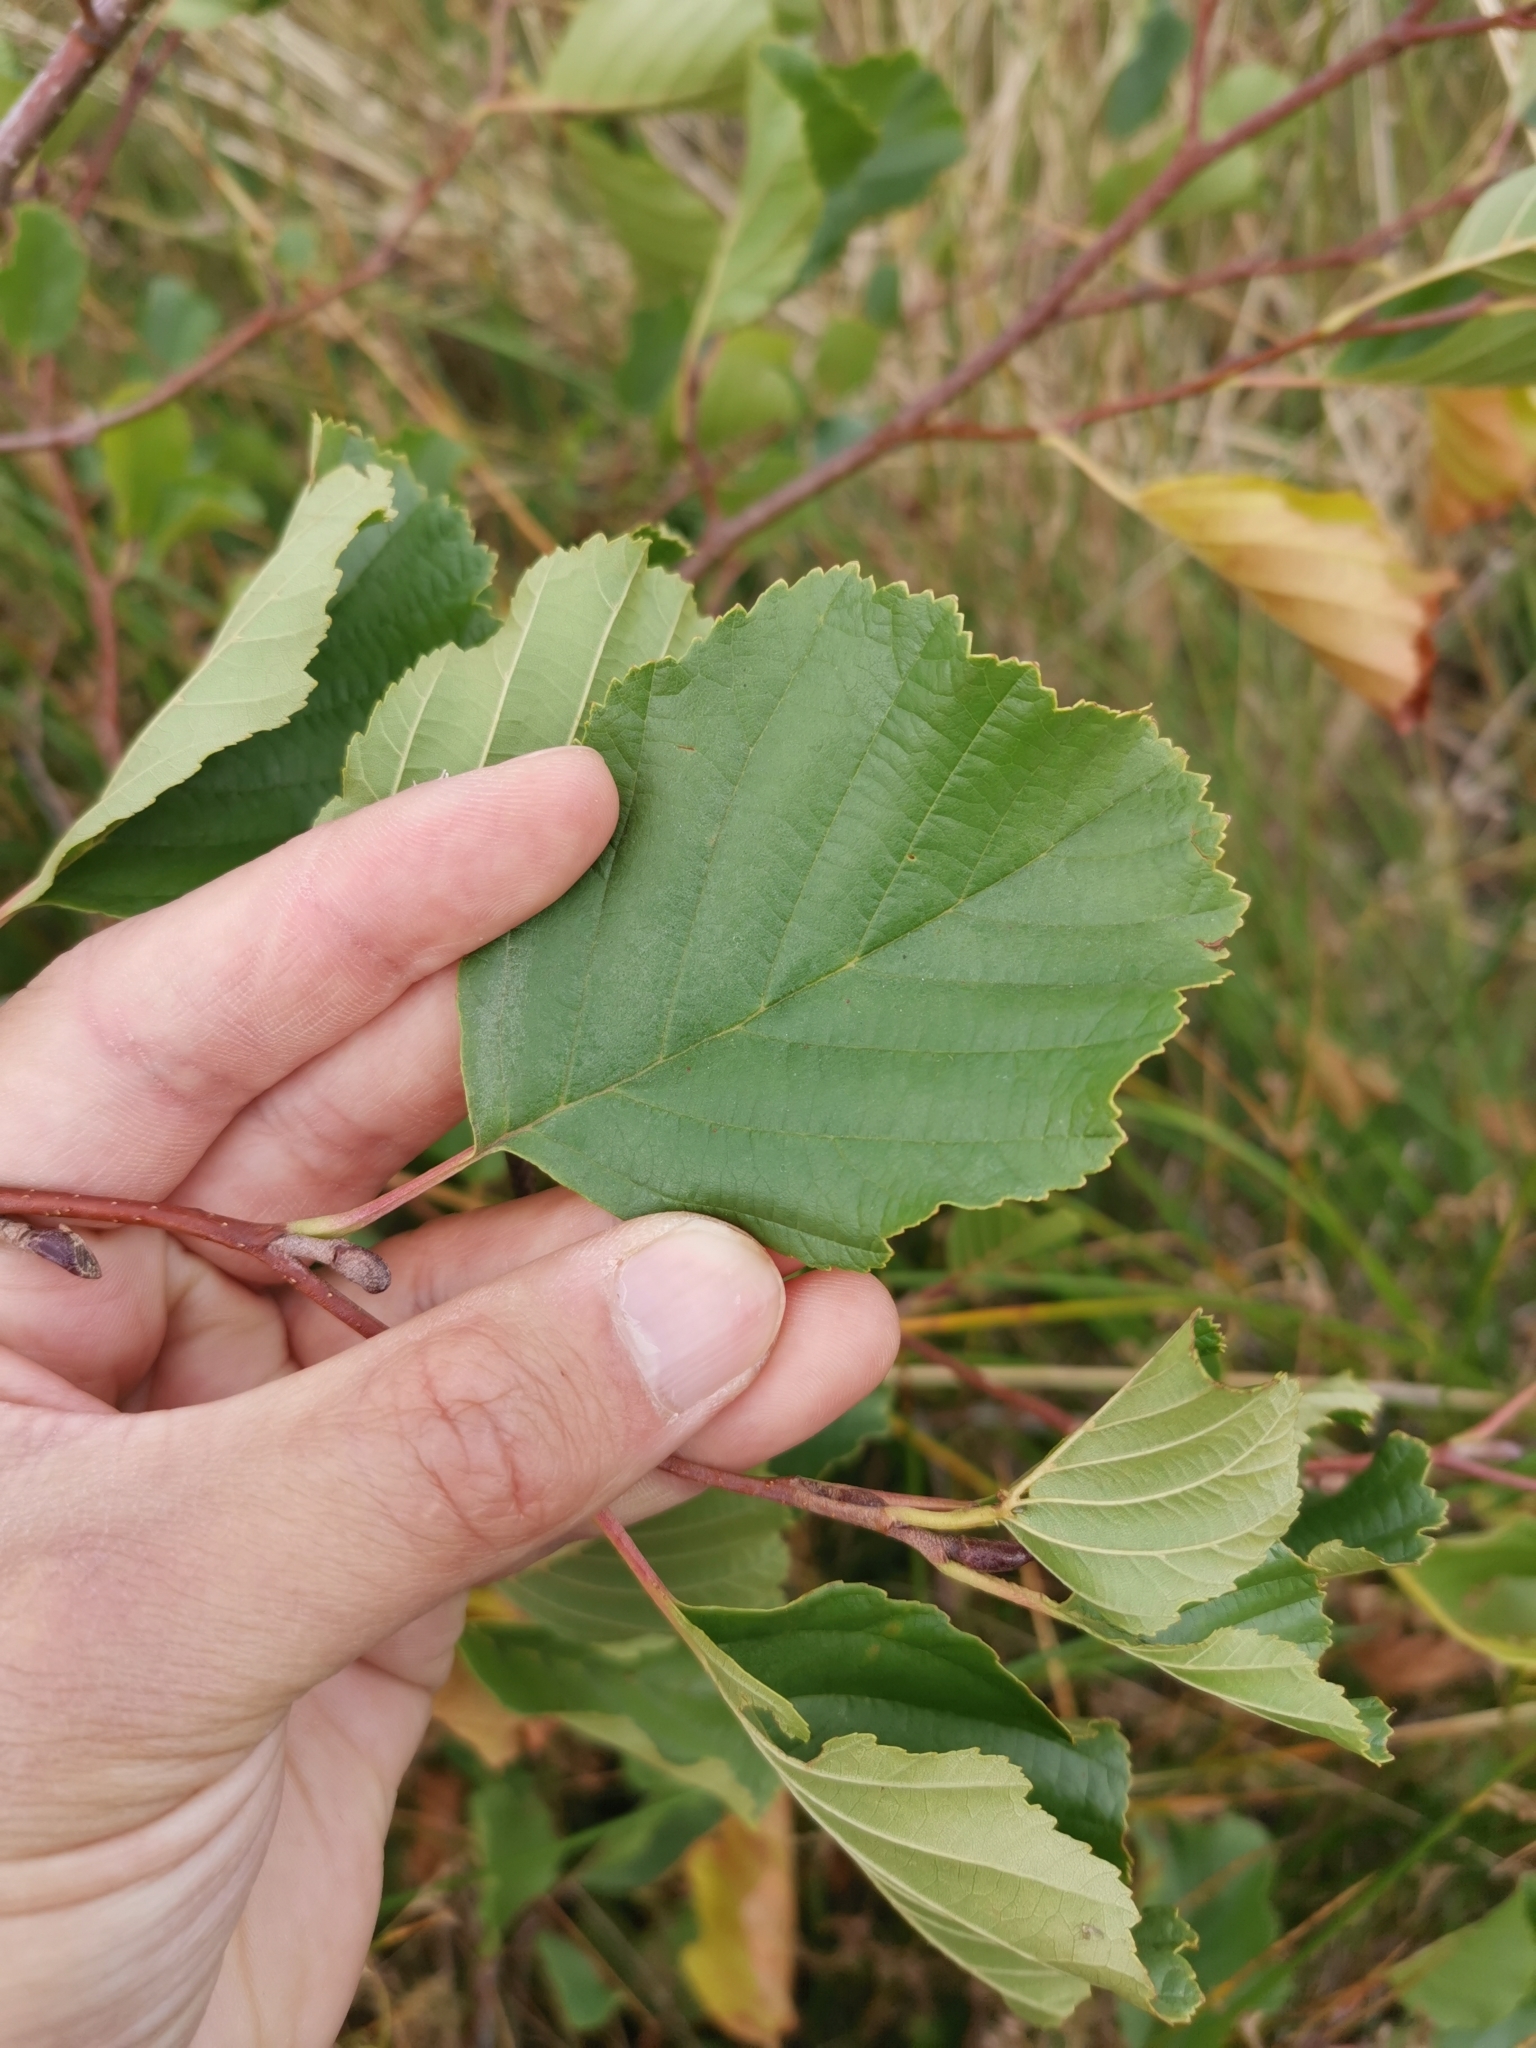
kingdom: Plantae
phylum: Tracheophyta
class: Magnoliopsida
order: Fagales
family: Betulaceae
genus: Alnus
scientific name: Alnus glutinosa
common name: Black alder
